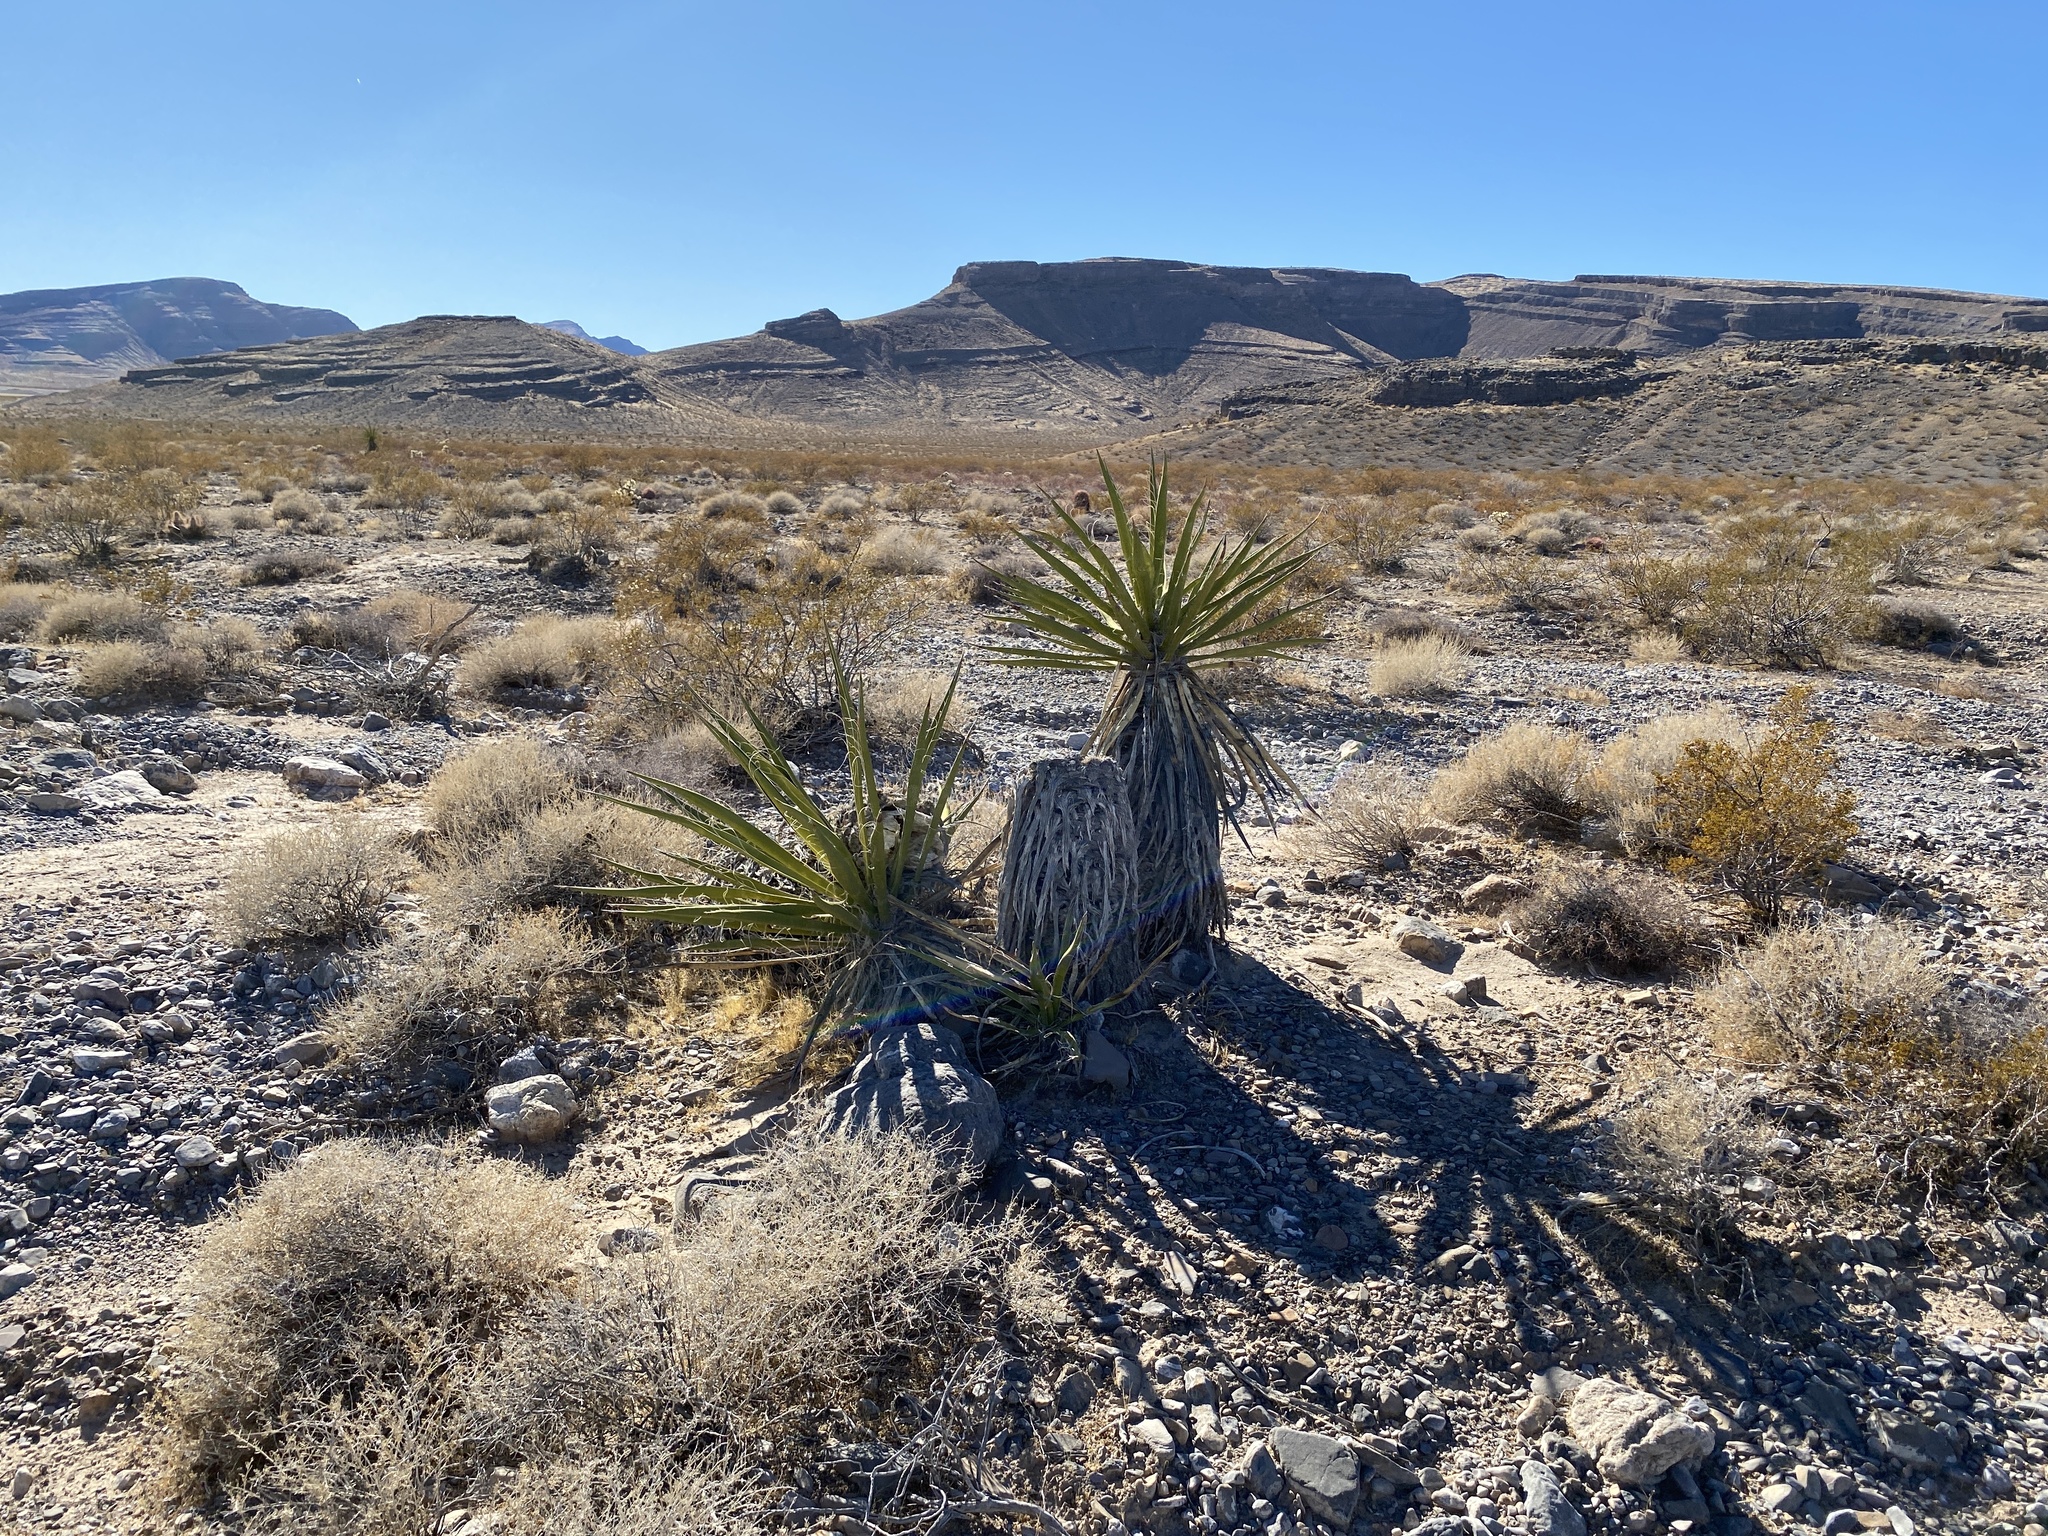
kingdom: Plantae
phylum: Tracheophyta
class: Liliopsida
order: Asparagales
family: Asparagaceae
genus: Yucca
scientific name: Yucca schidigera
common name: Mojave yucca
